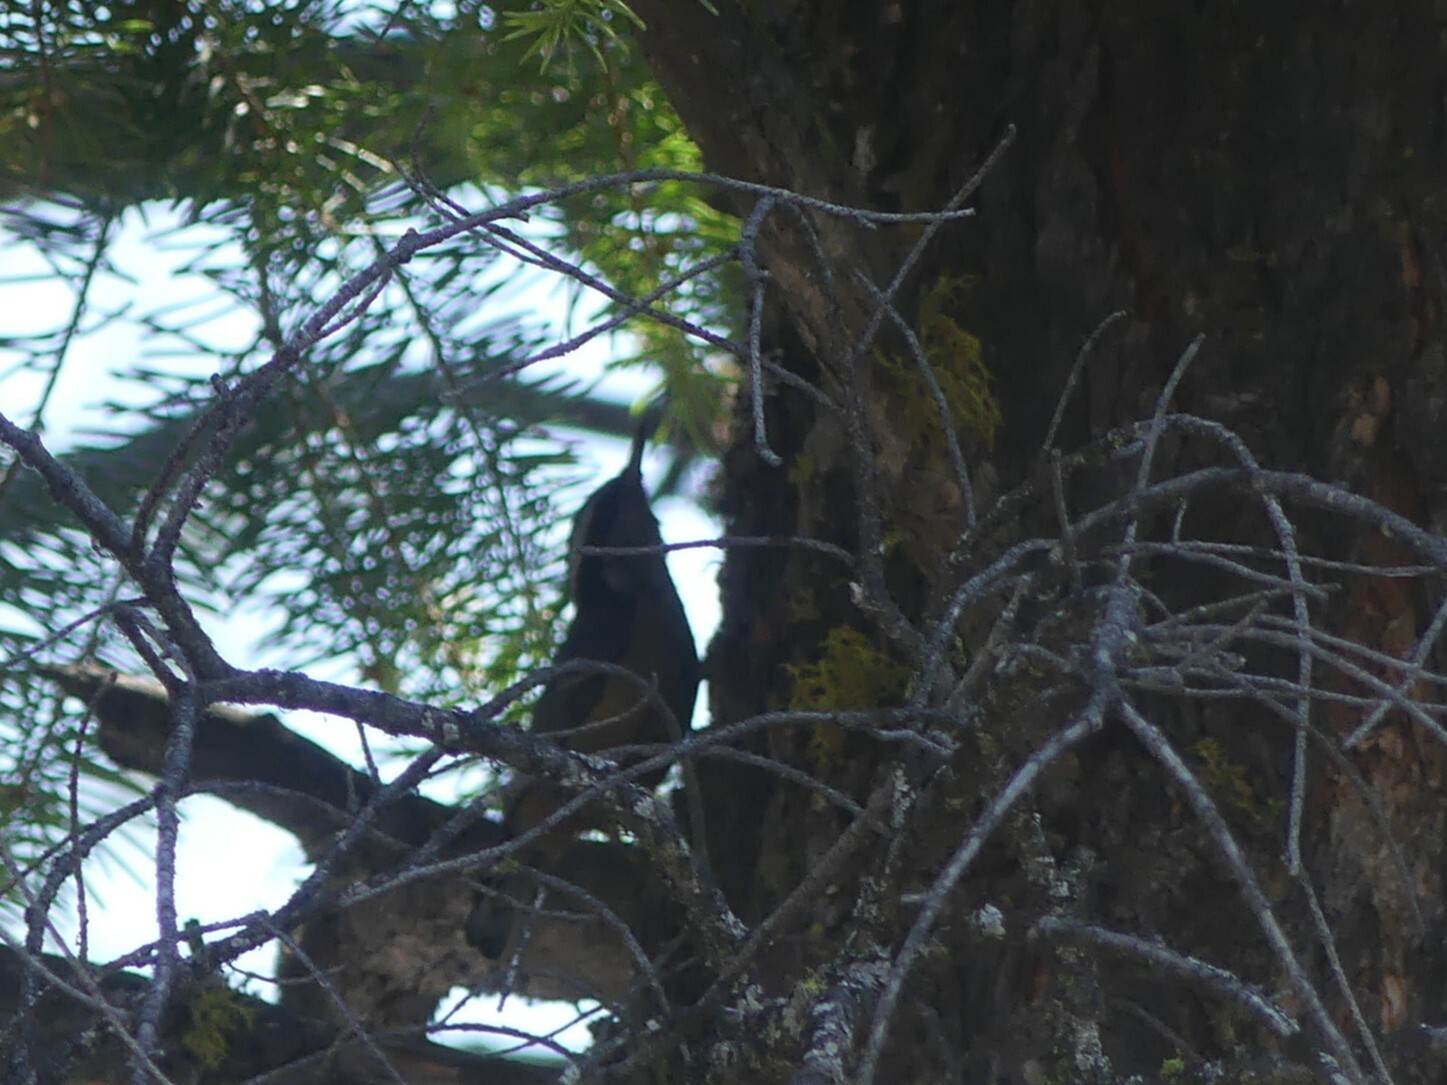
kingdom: Animalia
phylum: Chordata
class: Aves
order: Passeriformes
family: Sittidae
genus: Sitta
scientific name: Sitta canadensis
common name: Red-breasted nuthatch
